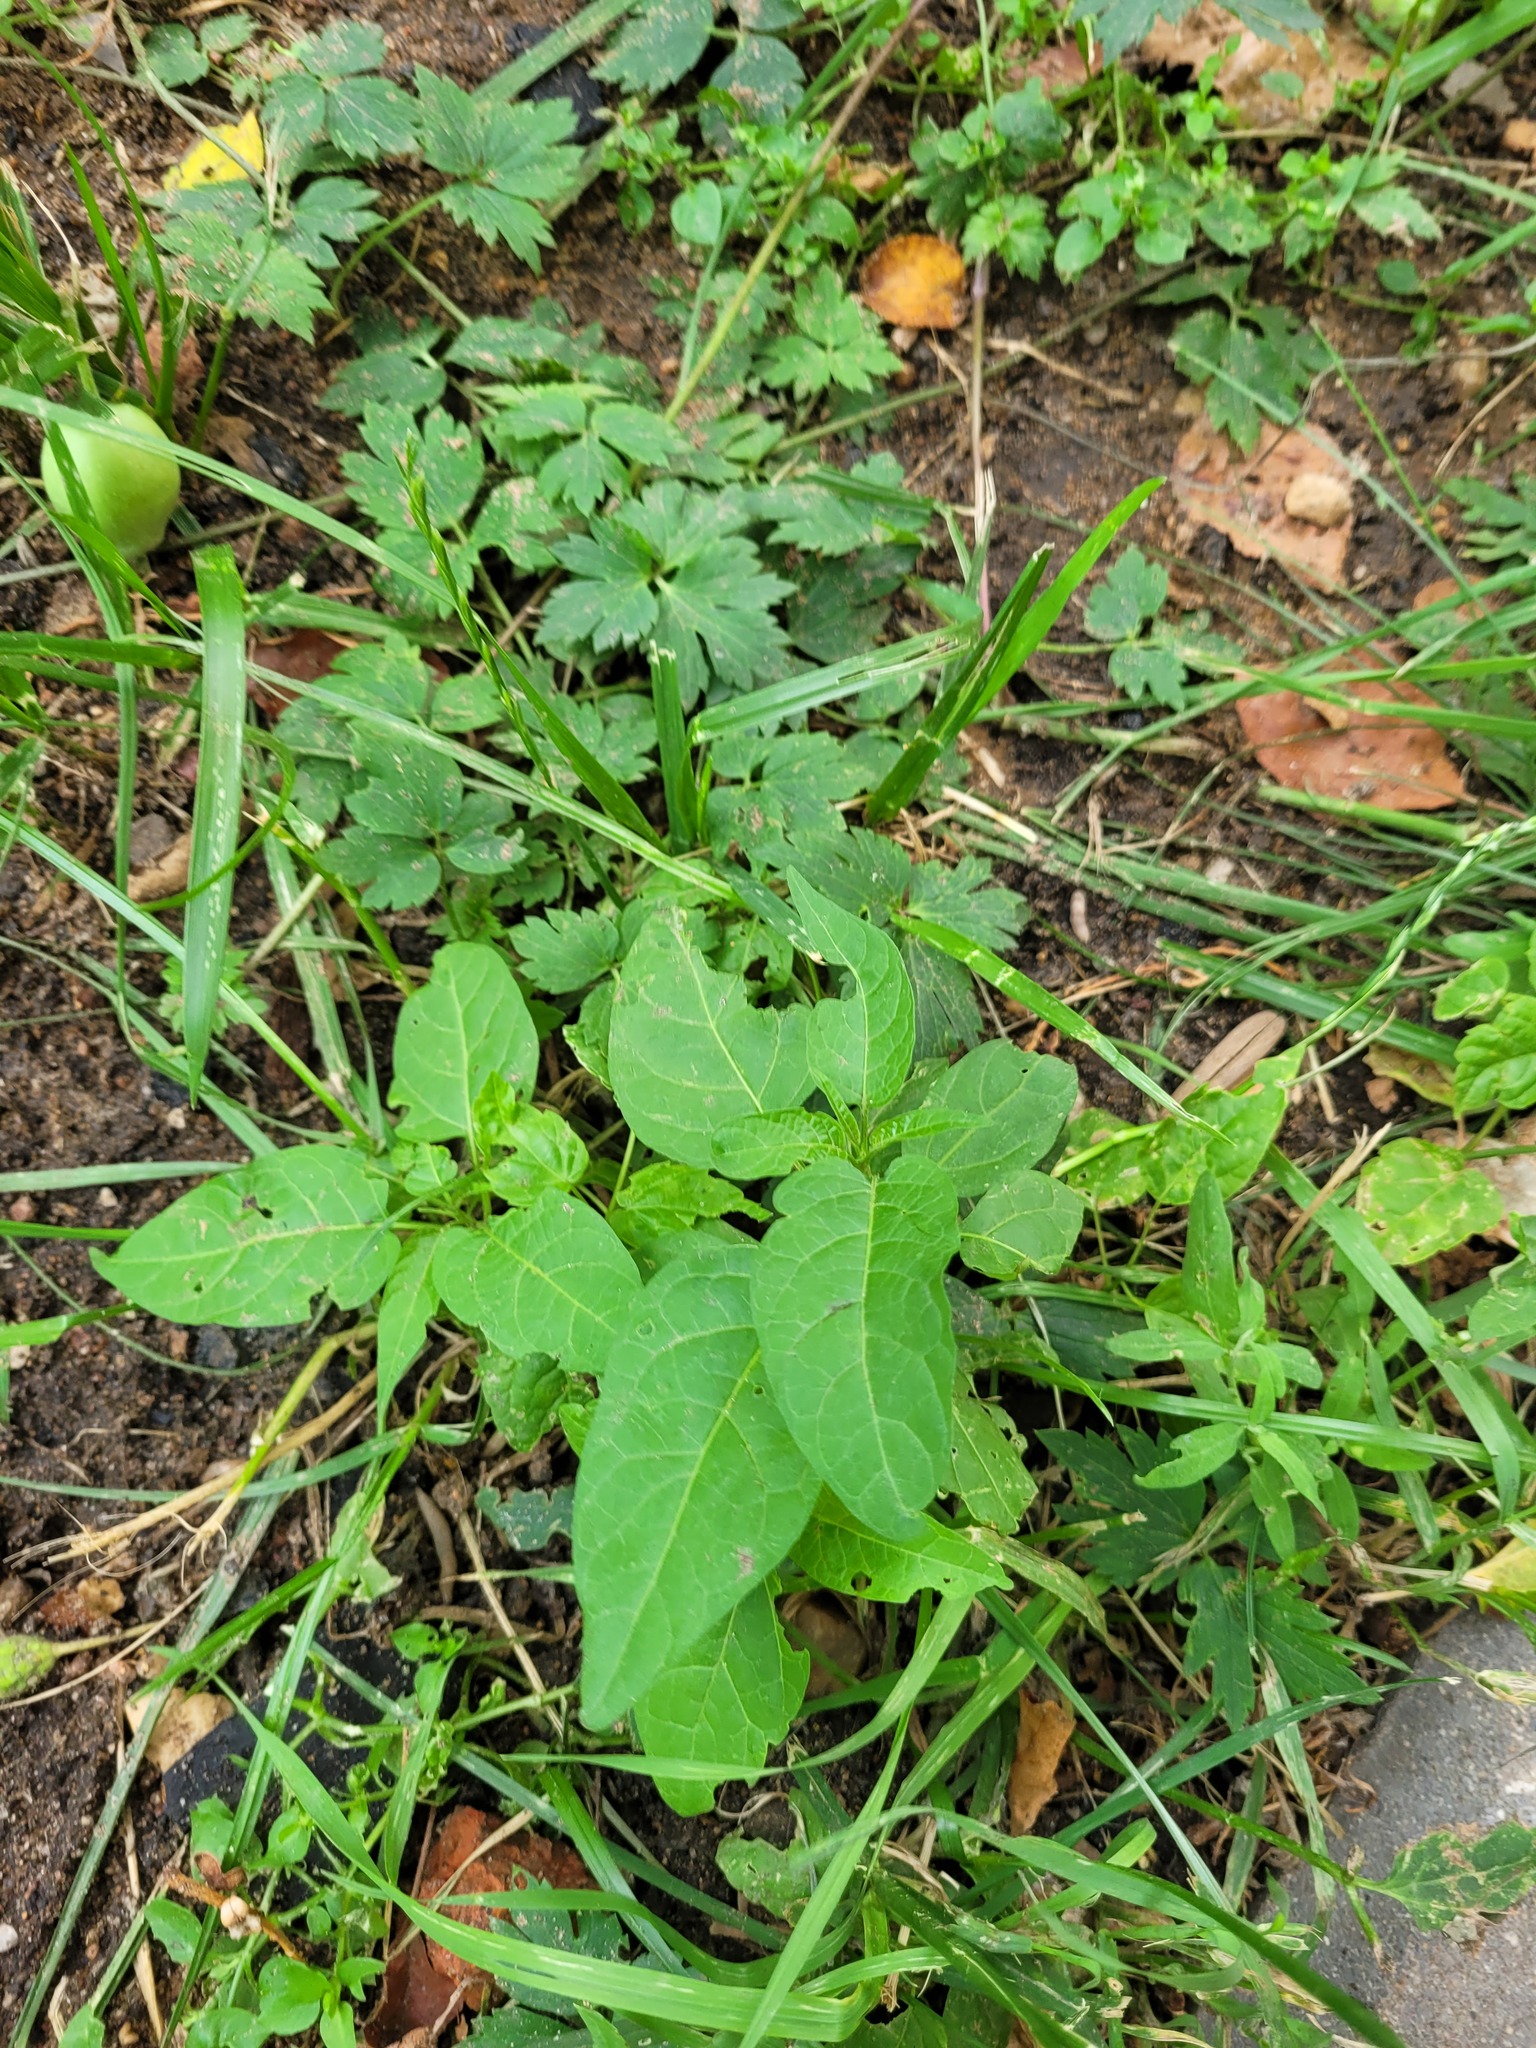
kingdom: Plantae
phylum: Tracheophyta
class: Magnoliopsida
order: Solanales
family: Solanaceae
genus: Solanum
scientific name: Solanum dulcamara
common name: Climbing nightshade
